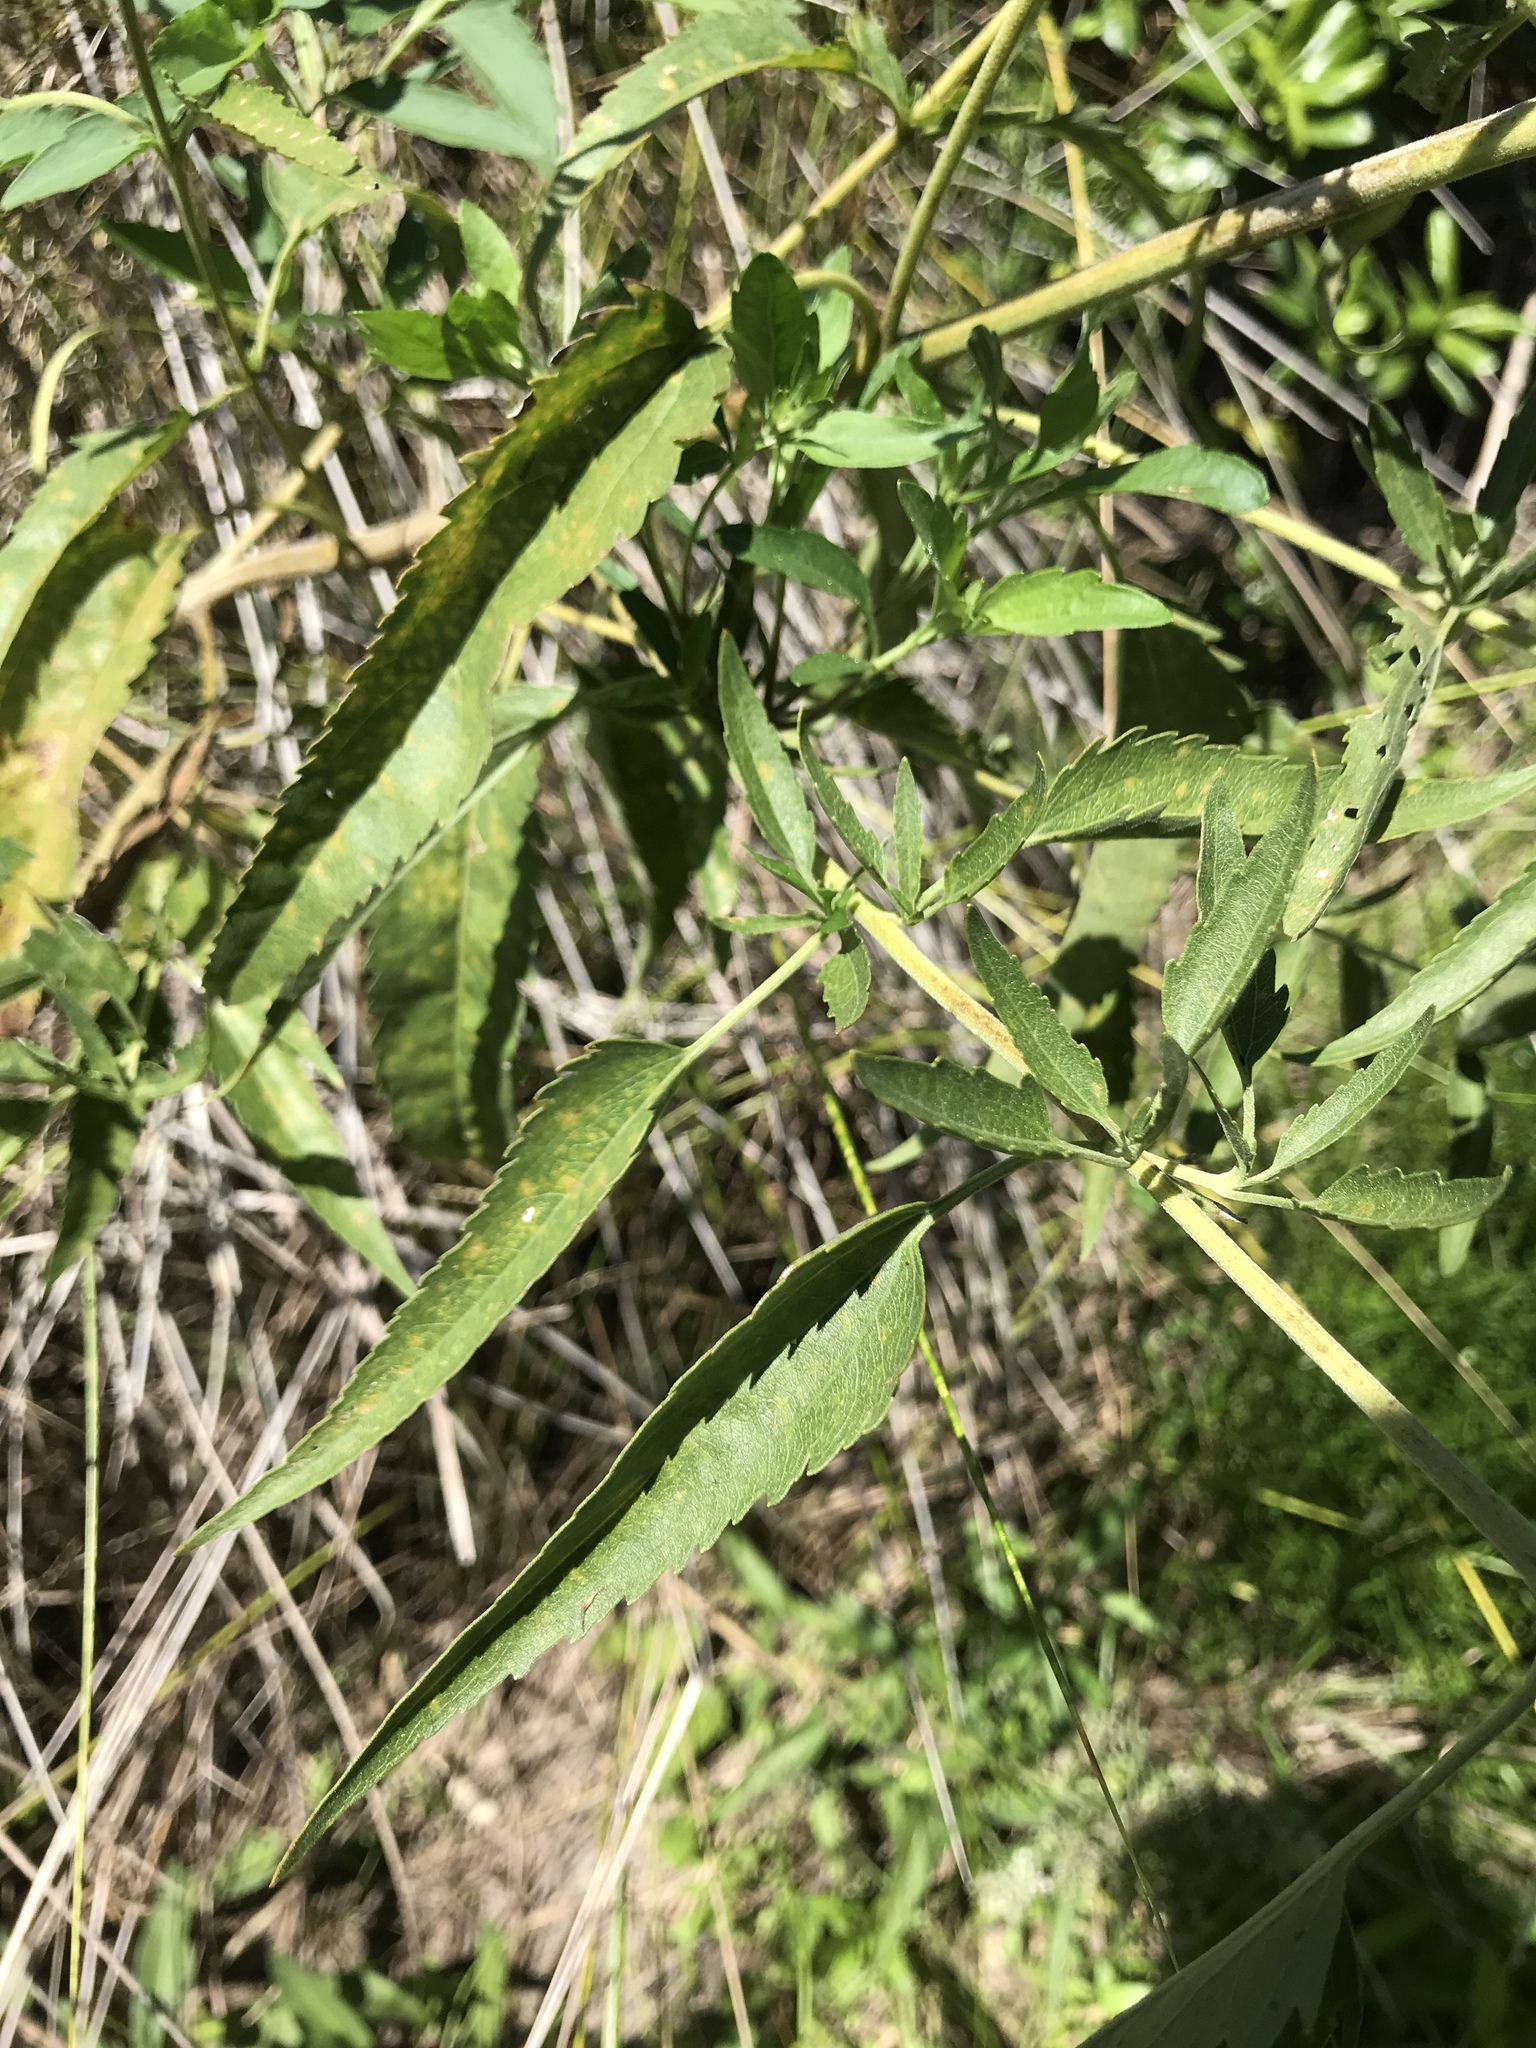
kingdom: Plantae
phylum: Tracheophyta
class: Magnoliopsida
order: Asterales
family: Asteraceae
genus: Eupatorium
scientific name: Eupatorium serotinum
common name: Late boneset
